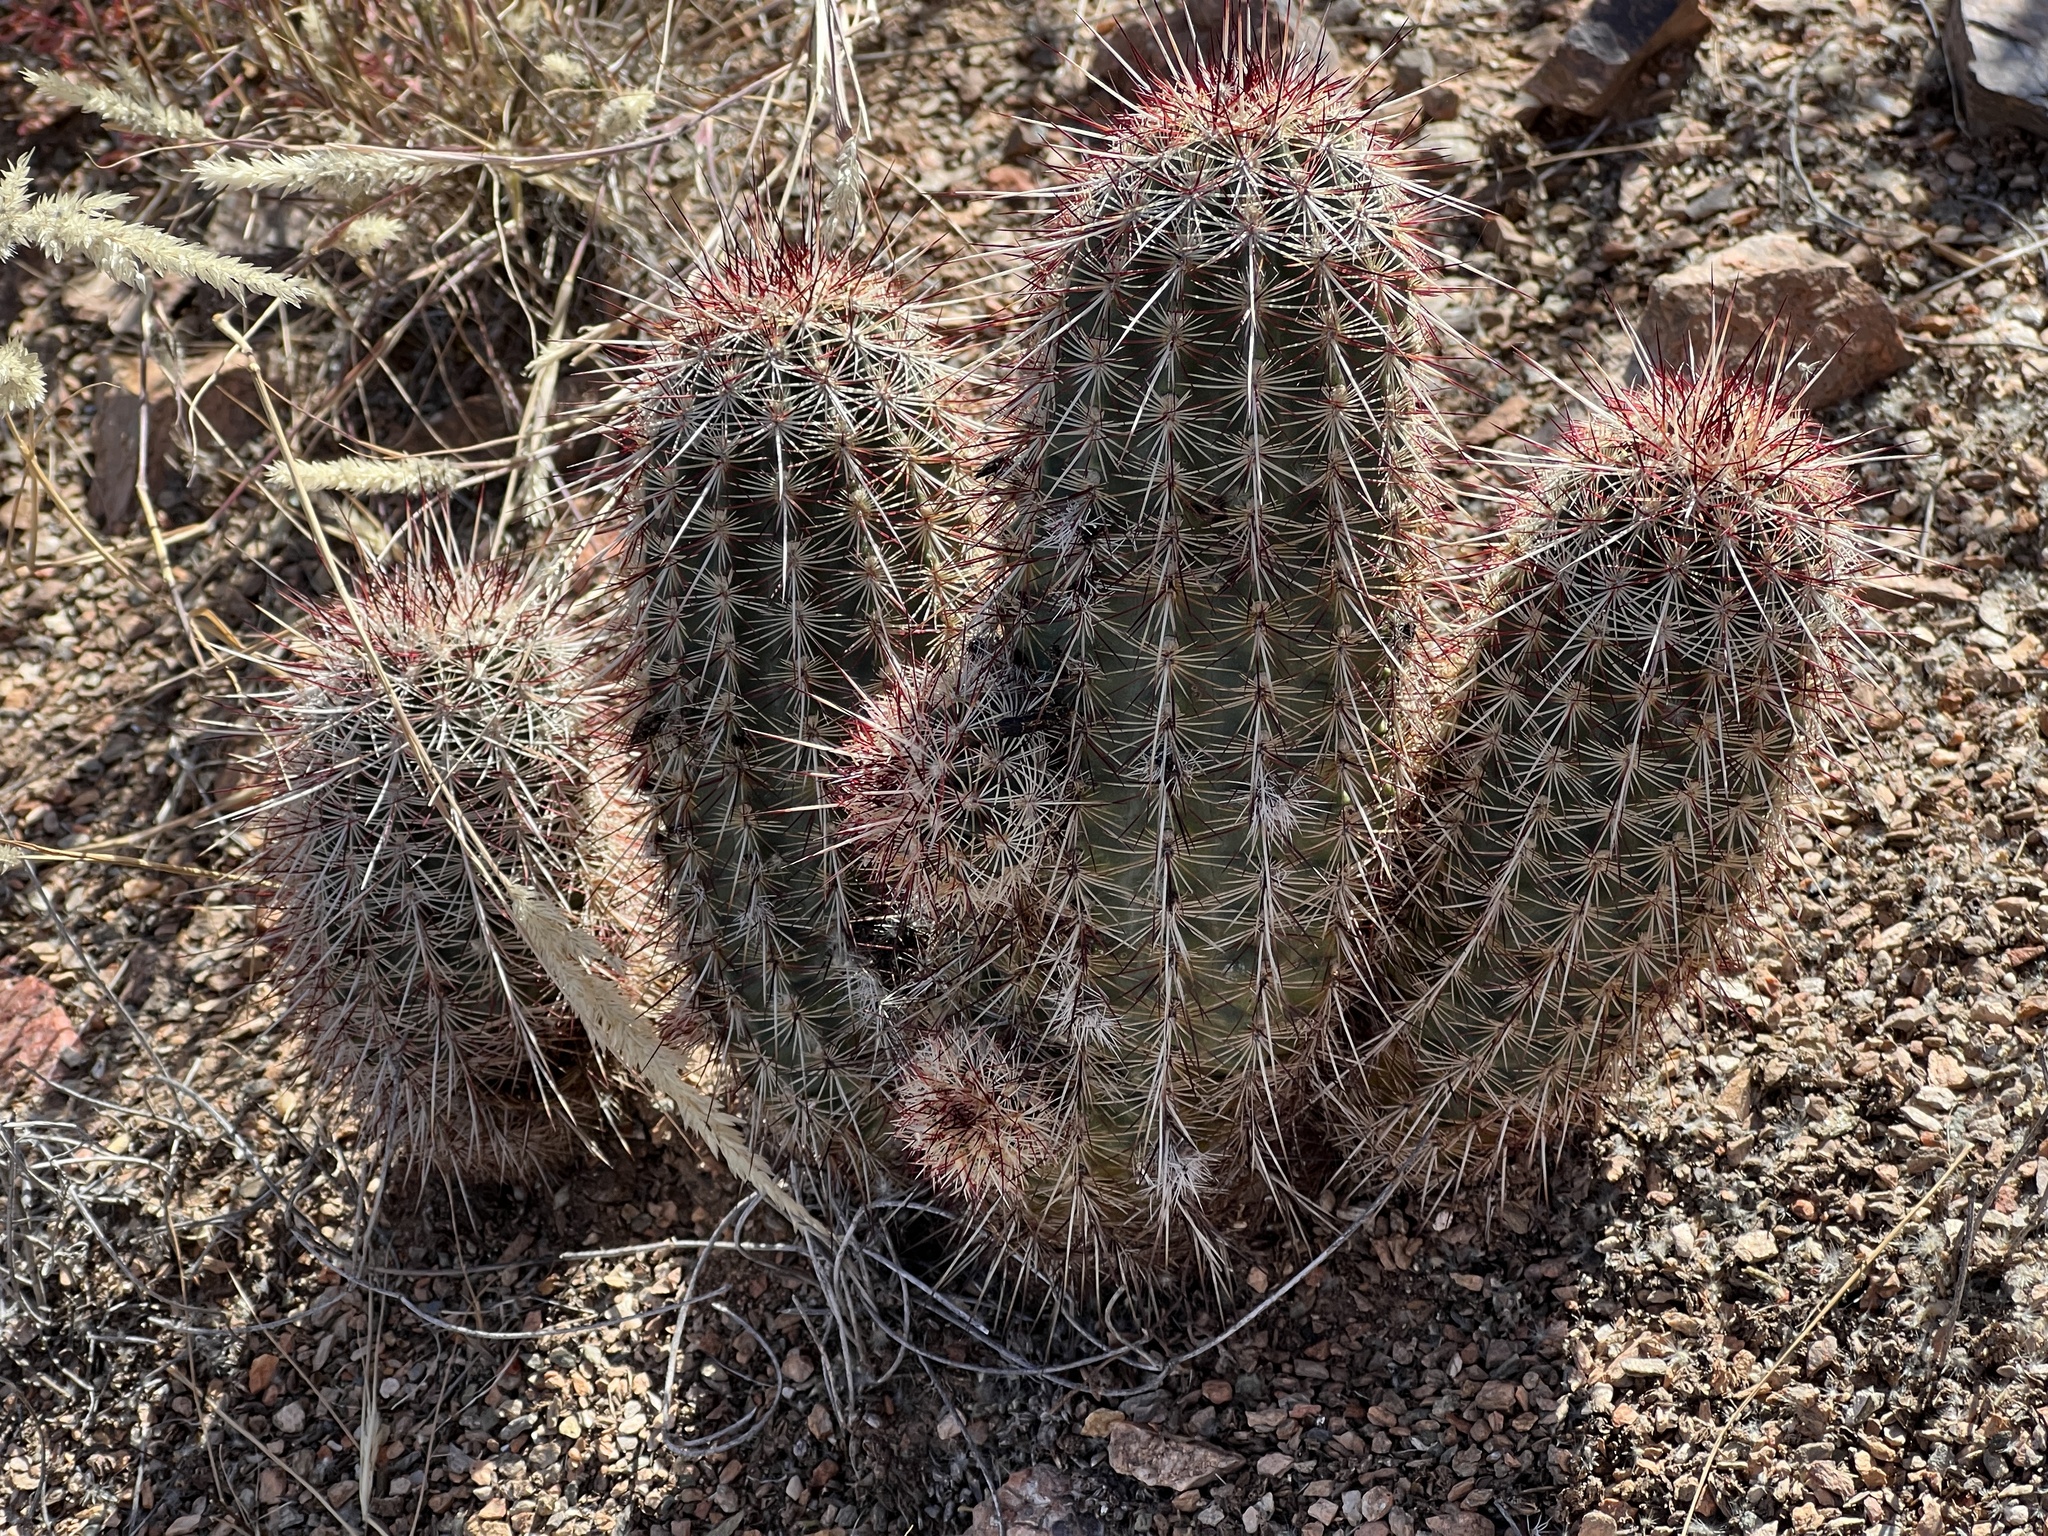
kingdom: Plantae
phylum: Tracheophyta
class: Magnoliopsida
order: Caryophyllales
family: Cactaceae
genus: Echinocereus
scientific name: Echinocereus viridiflorus
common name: Nylon hedgehog cactus
